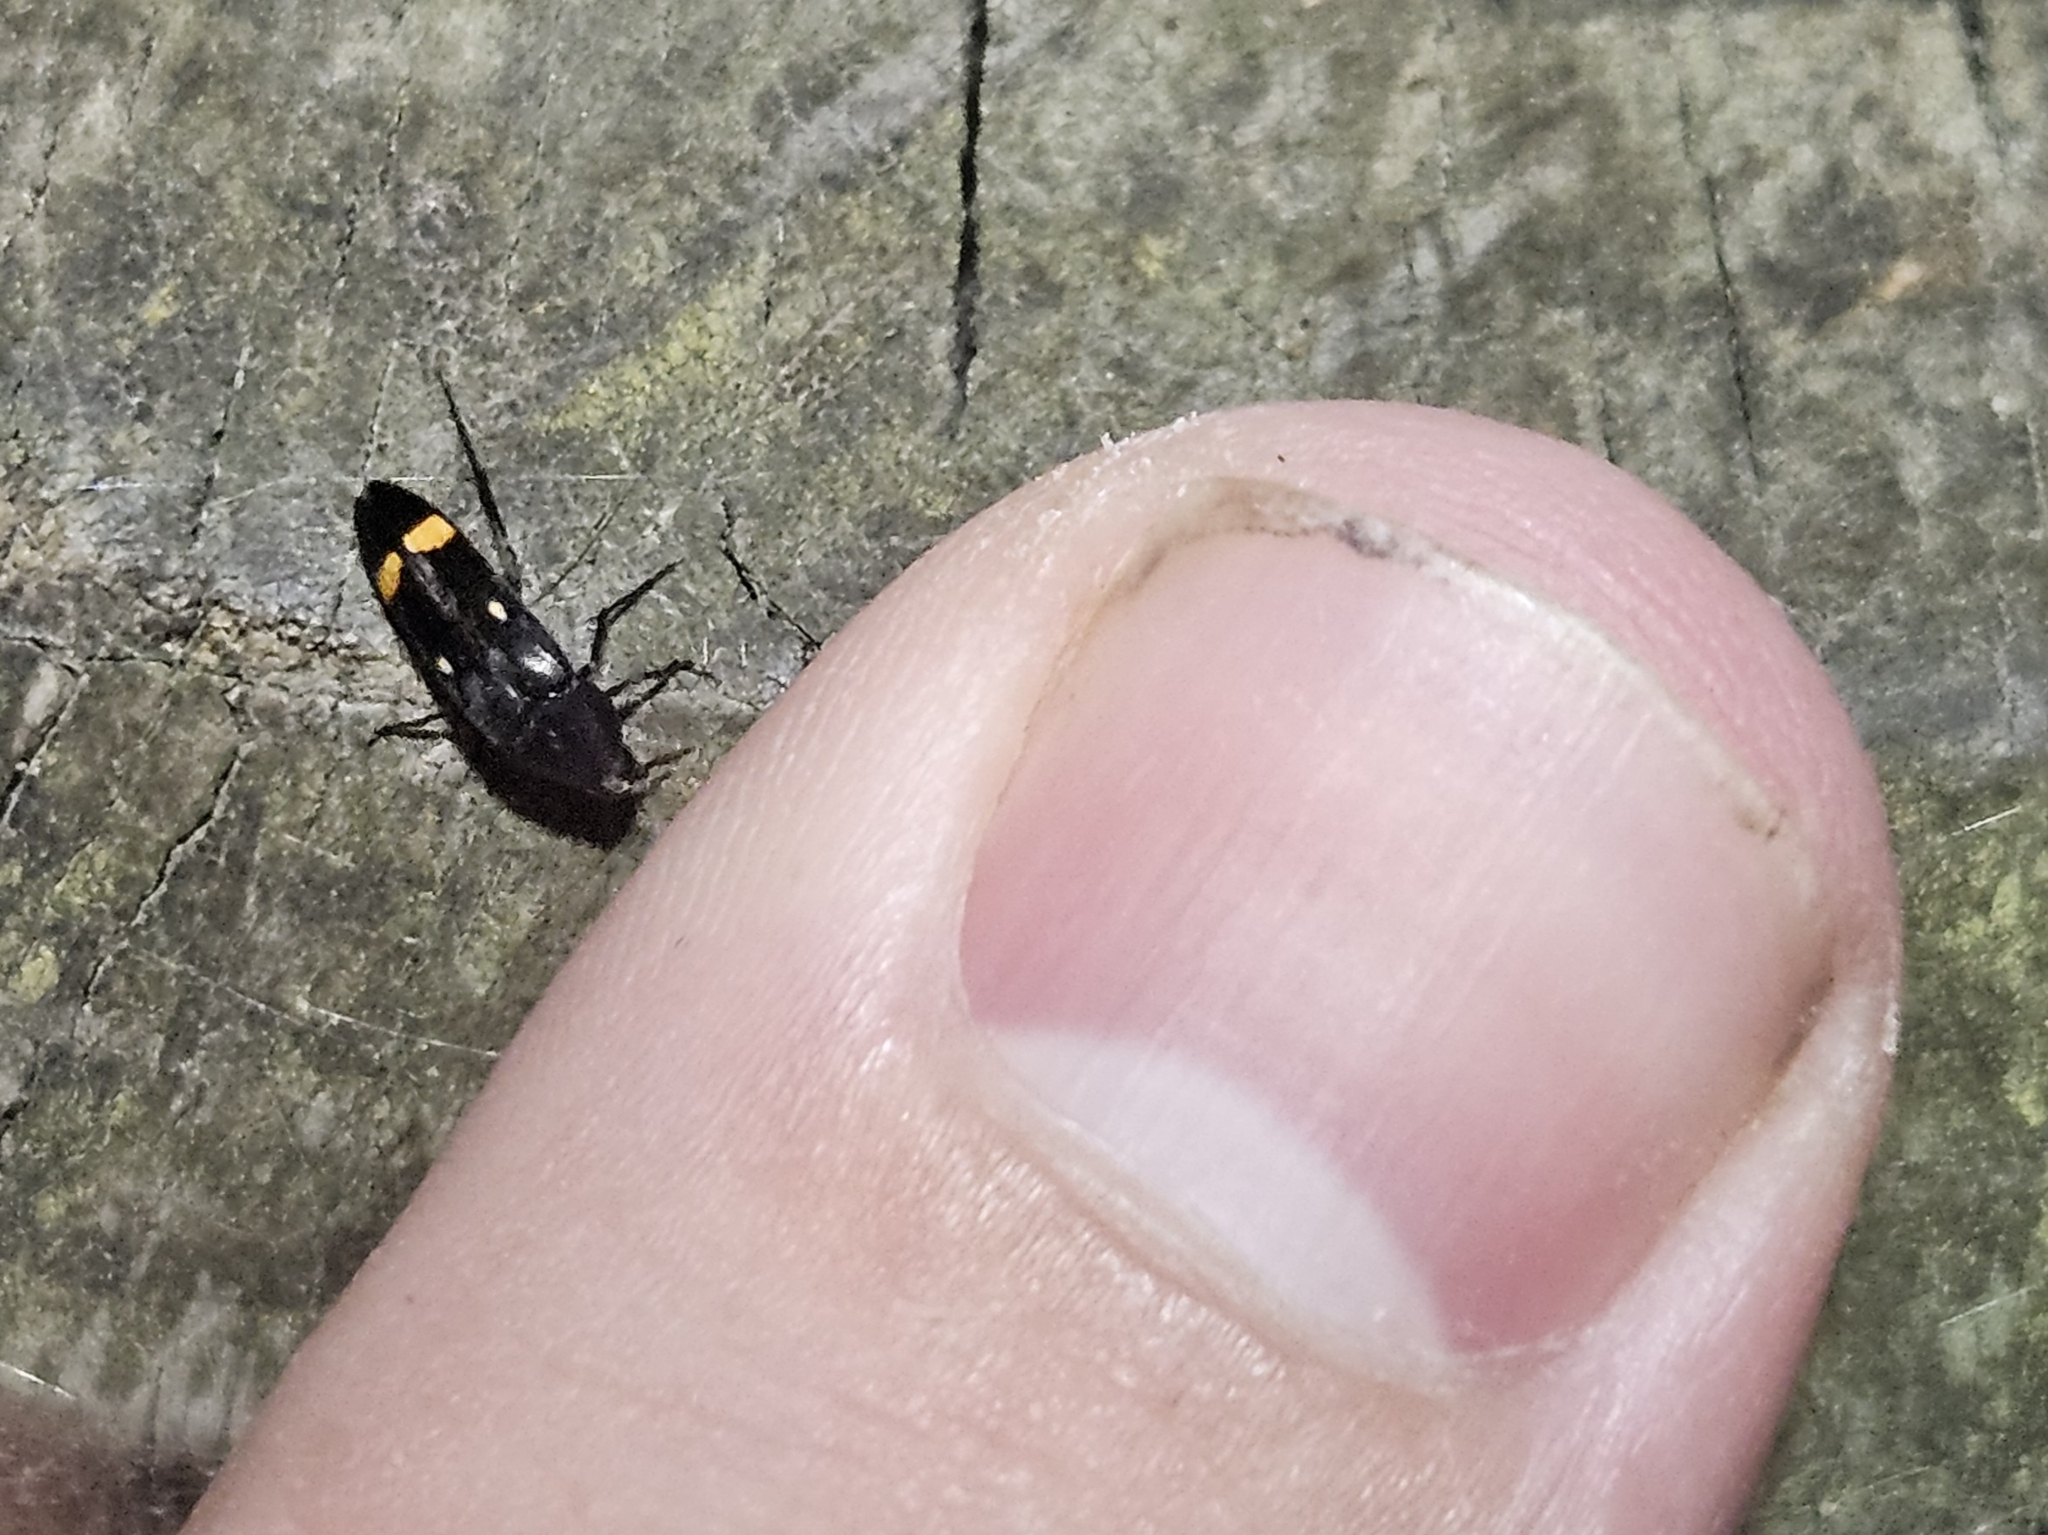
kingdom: Animalia
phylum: Arthropoda
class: Insecta
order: Coleoptera
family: Melandryidae
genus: Ctenoplectron
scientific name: Ctenoplectron
